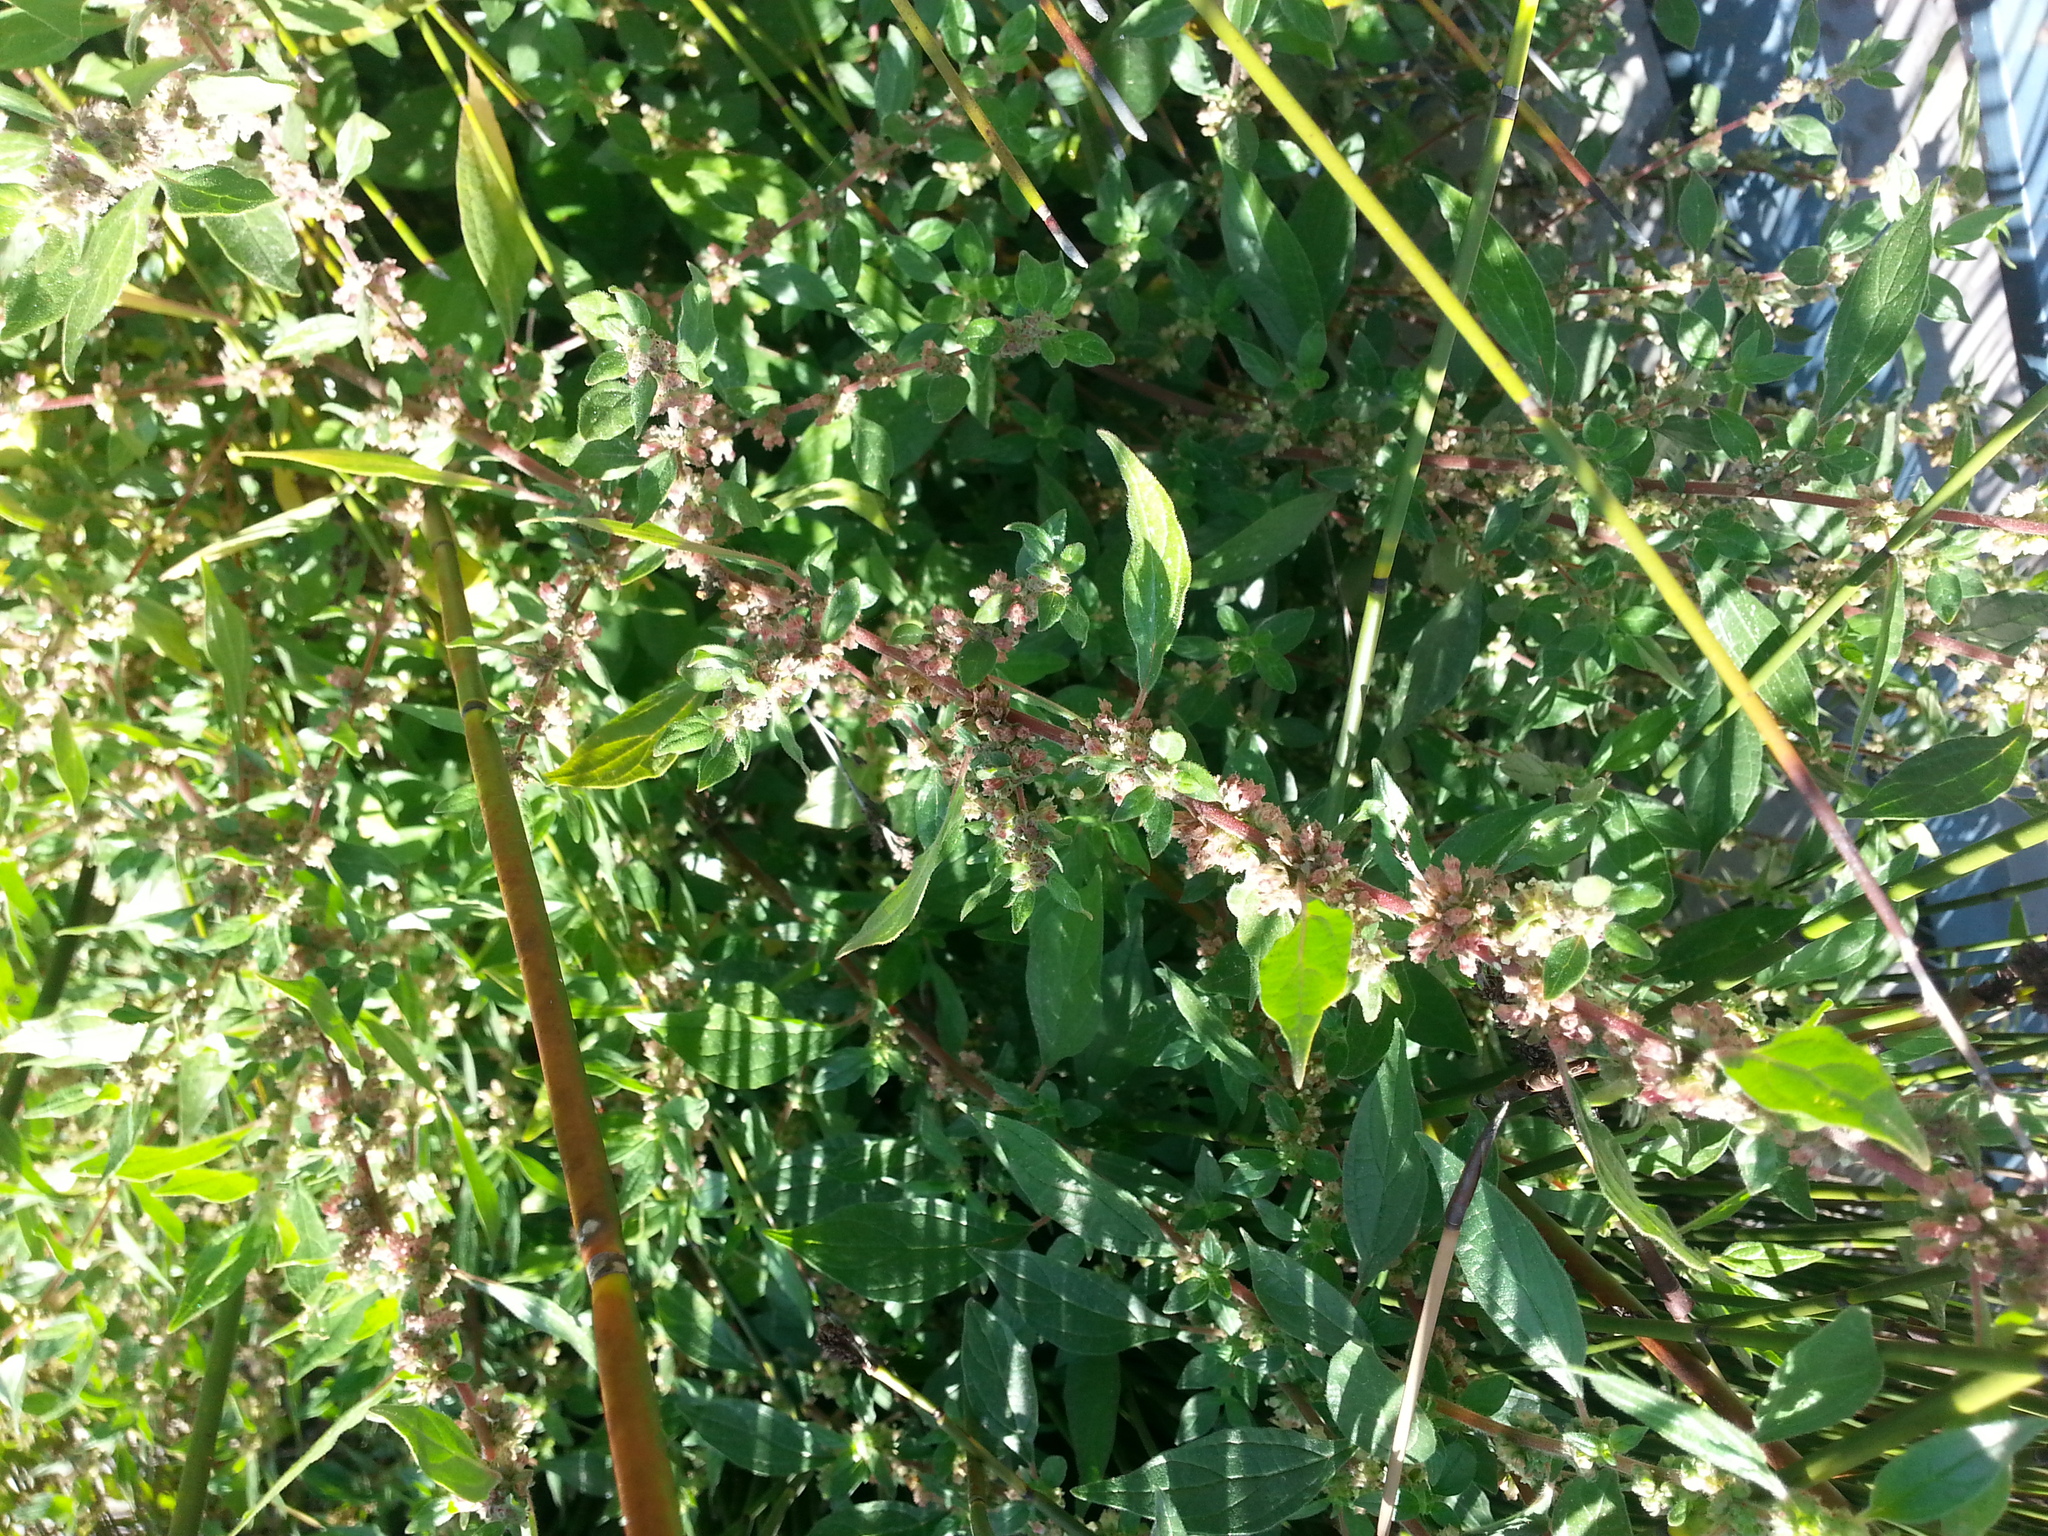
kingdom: Plantae
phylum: Tracheophyta
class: Magnoliopsida
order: Rosales
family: Urticaceae
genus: Parietaria
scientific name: Parietaria judaica
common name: Pellitory-of-the-wall
